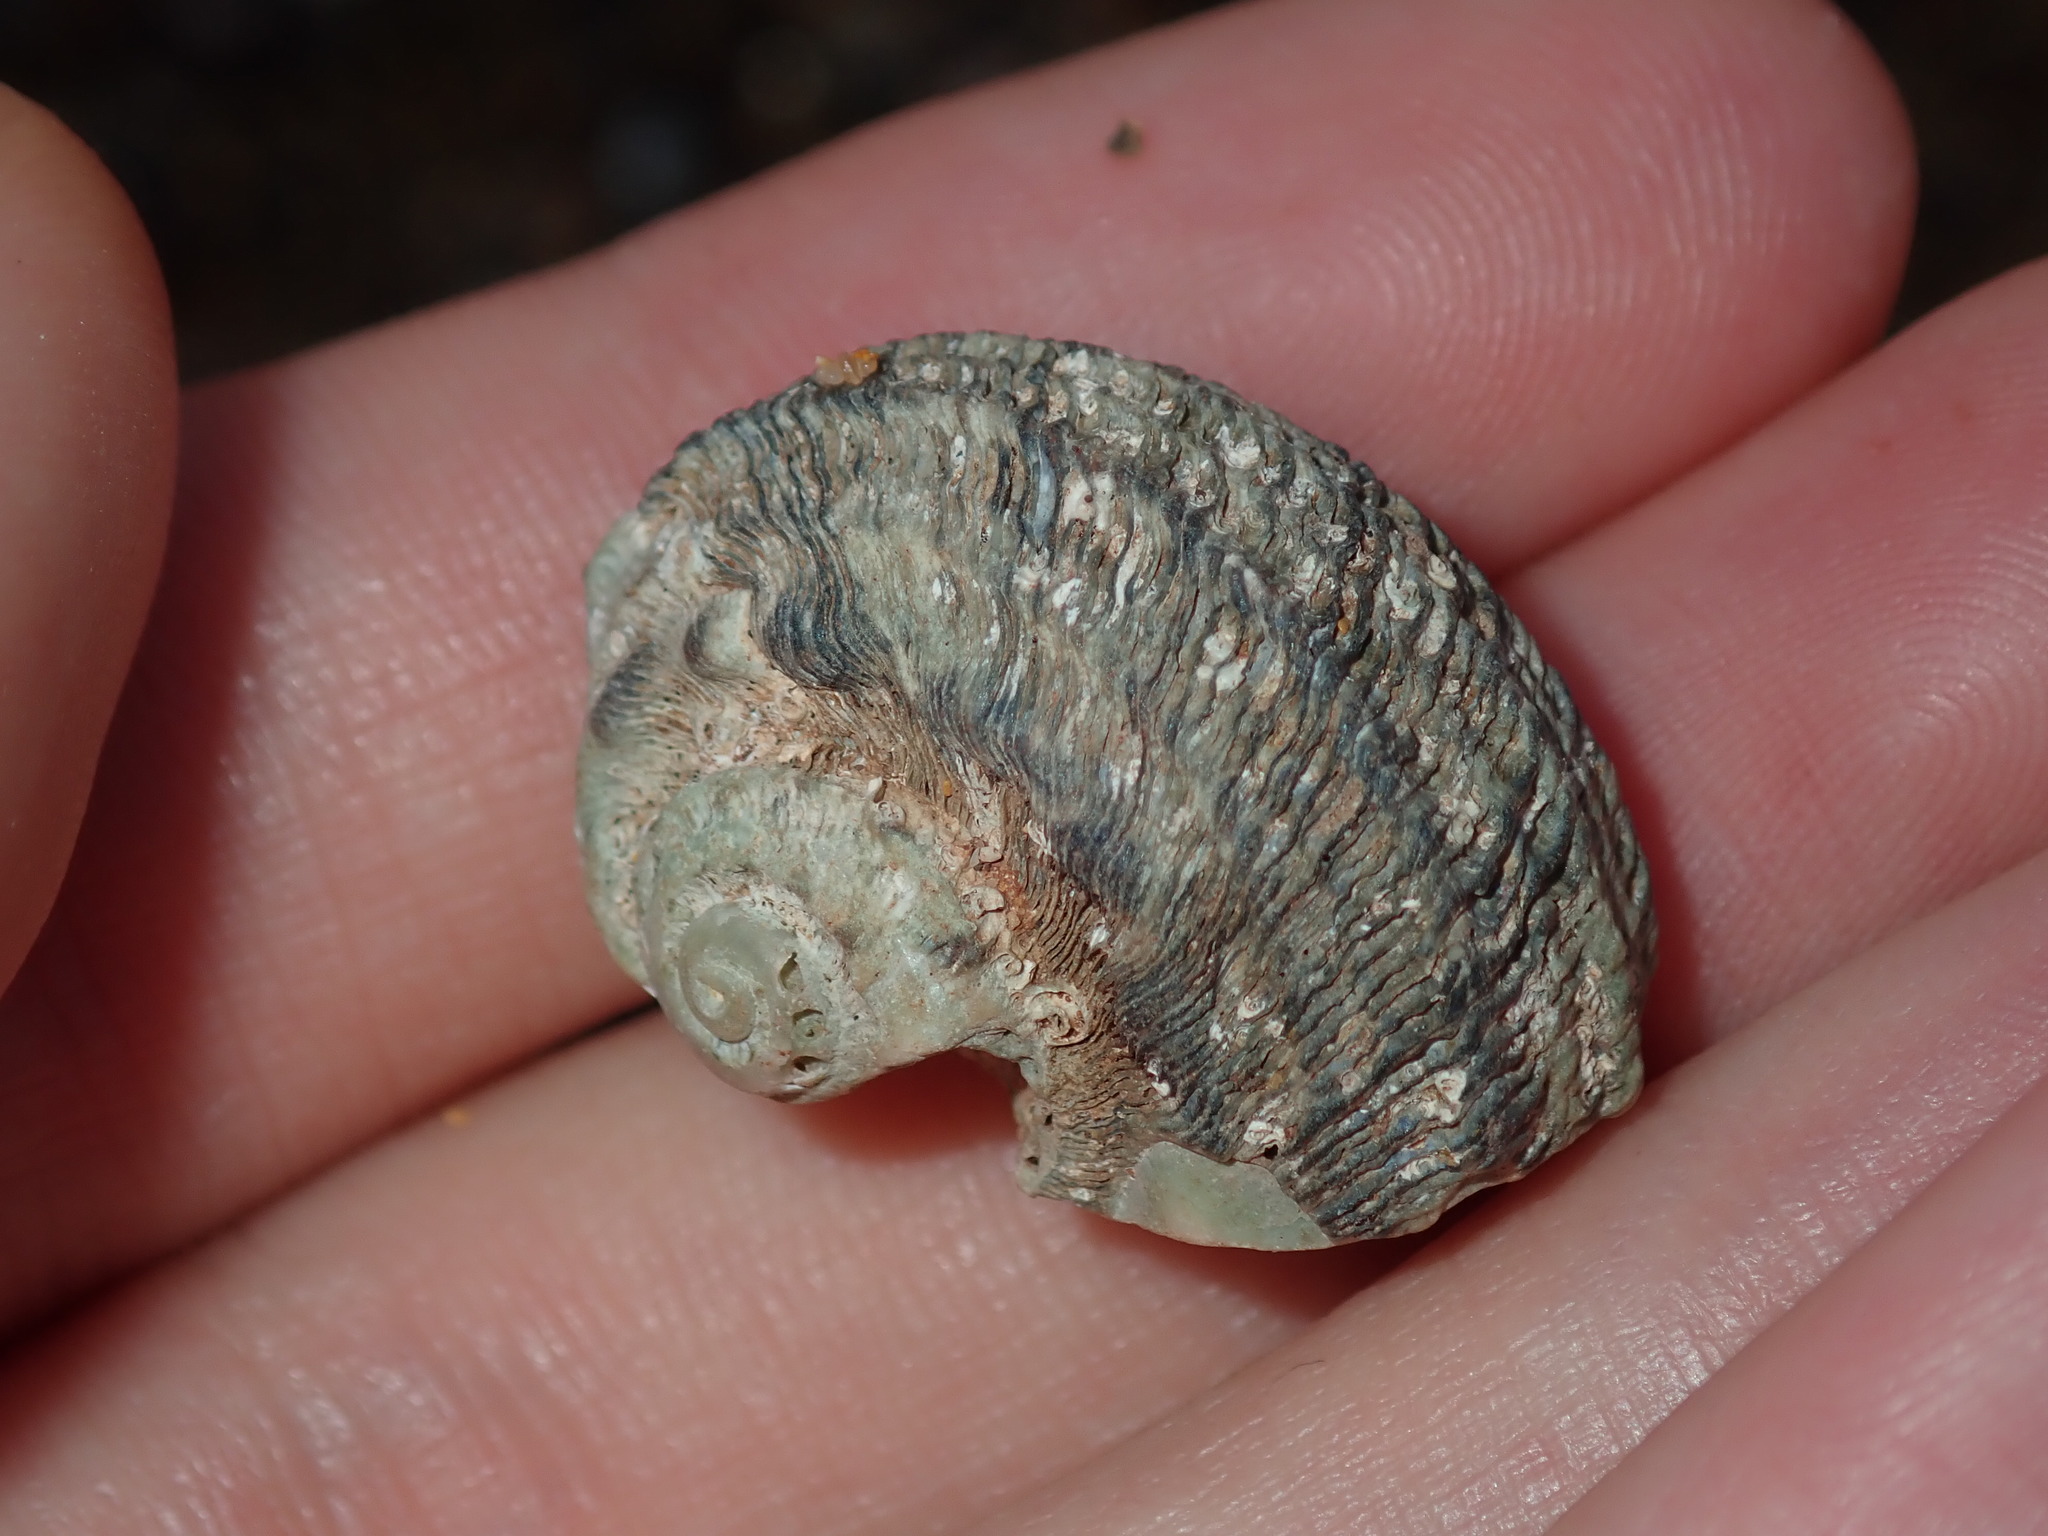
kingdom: Animalia
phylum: Mollusca
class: Gastropoda
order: Trochida
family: Turbinidae
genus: Lunella
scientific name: Lunella torquata
